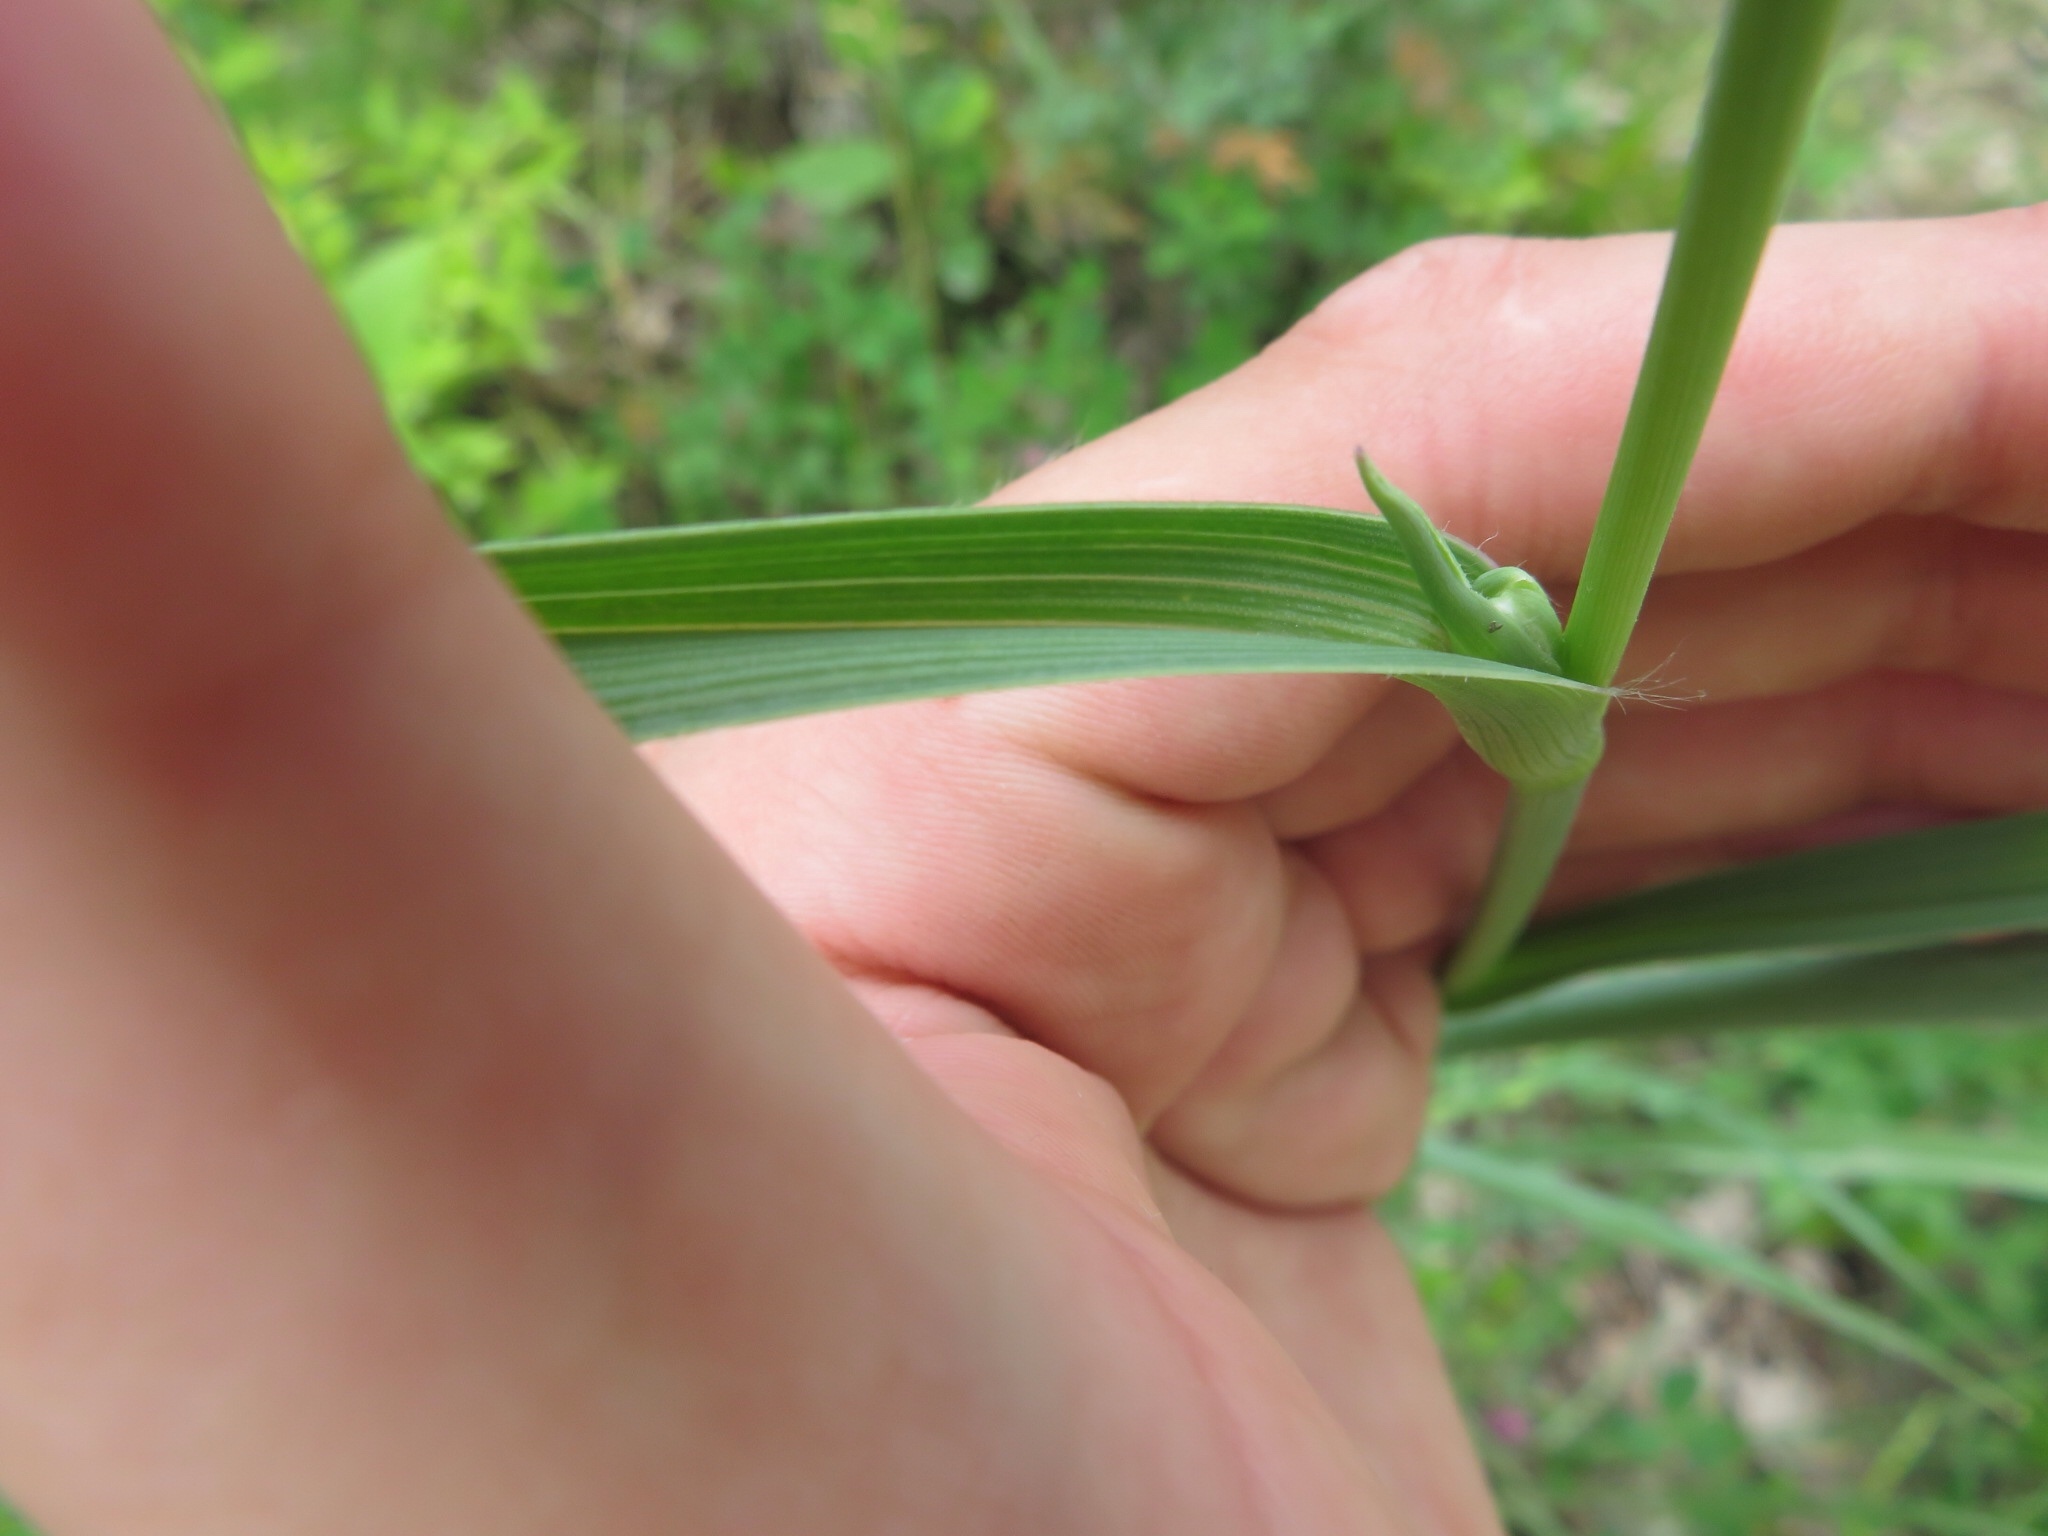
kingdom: Plantae
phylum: Tracheophyta
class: Liliopsida
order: Commelinales
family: Commelinaceae
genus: Tradescantia
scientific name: Tradescantia ohiensis
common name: Ohio spiderwort
